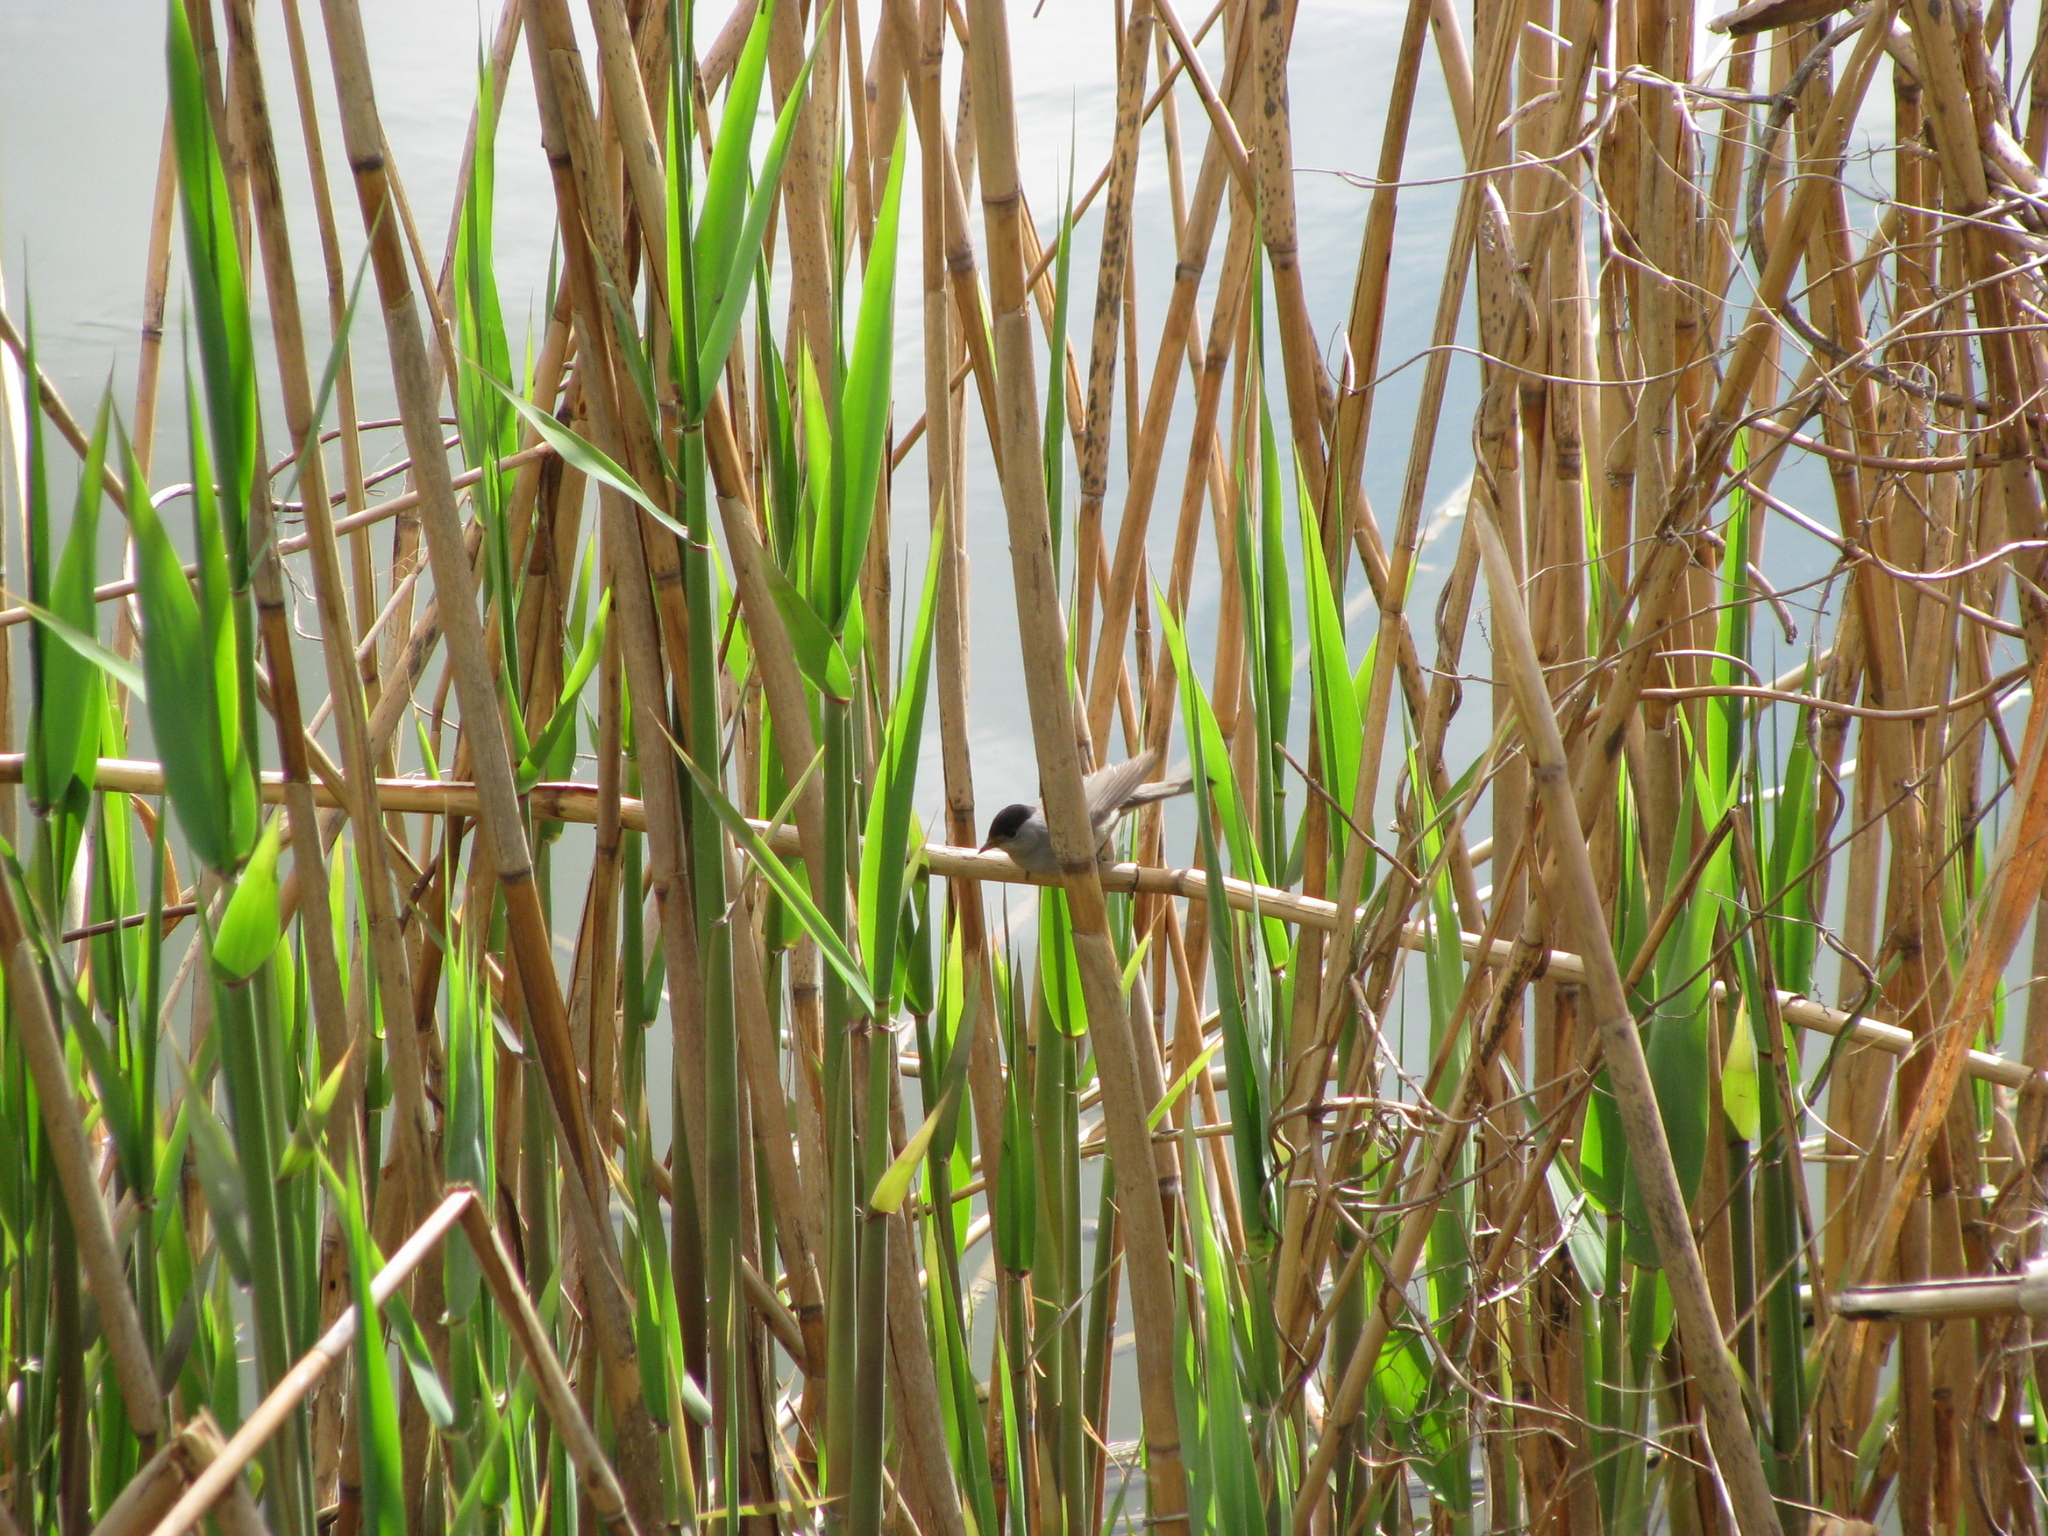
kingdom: Animalia
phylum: Chordata
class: Aves
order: Passeriformes
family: Sylviidae
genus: Sylvia
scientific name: Sylvia atricapilla
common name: Eurasian blackcap
